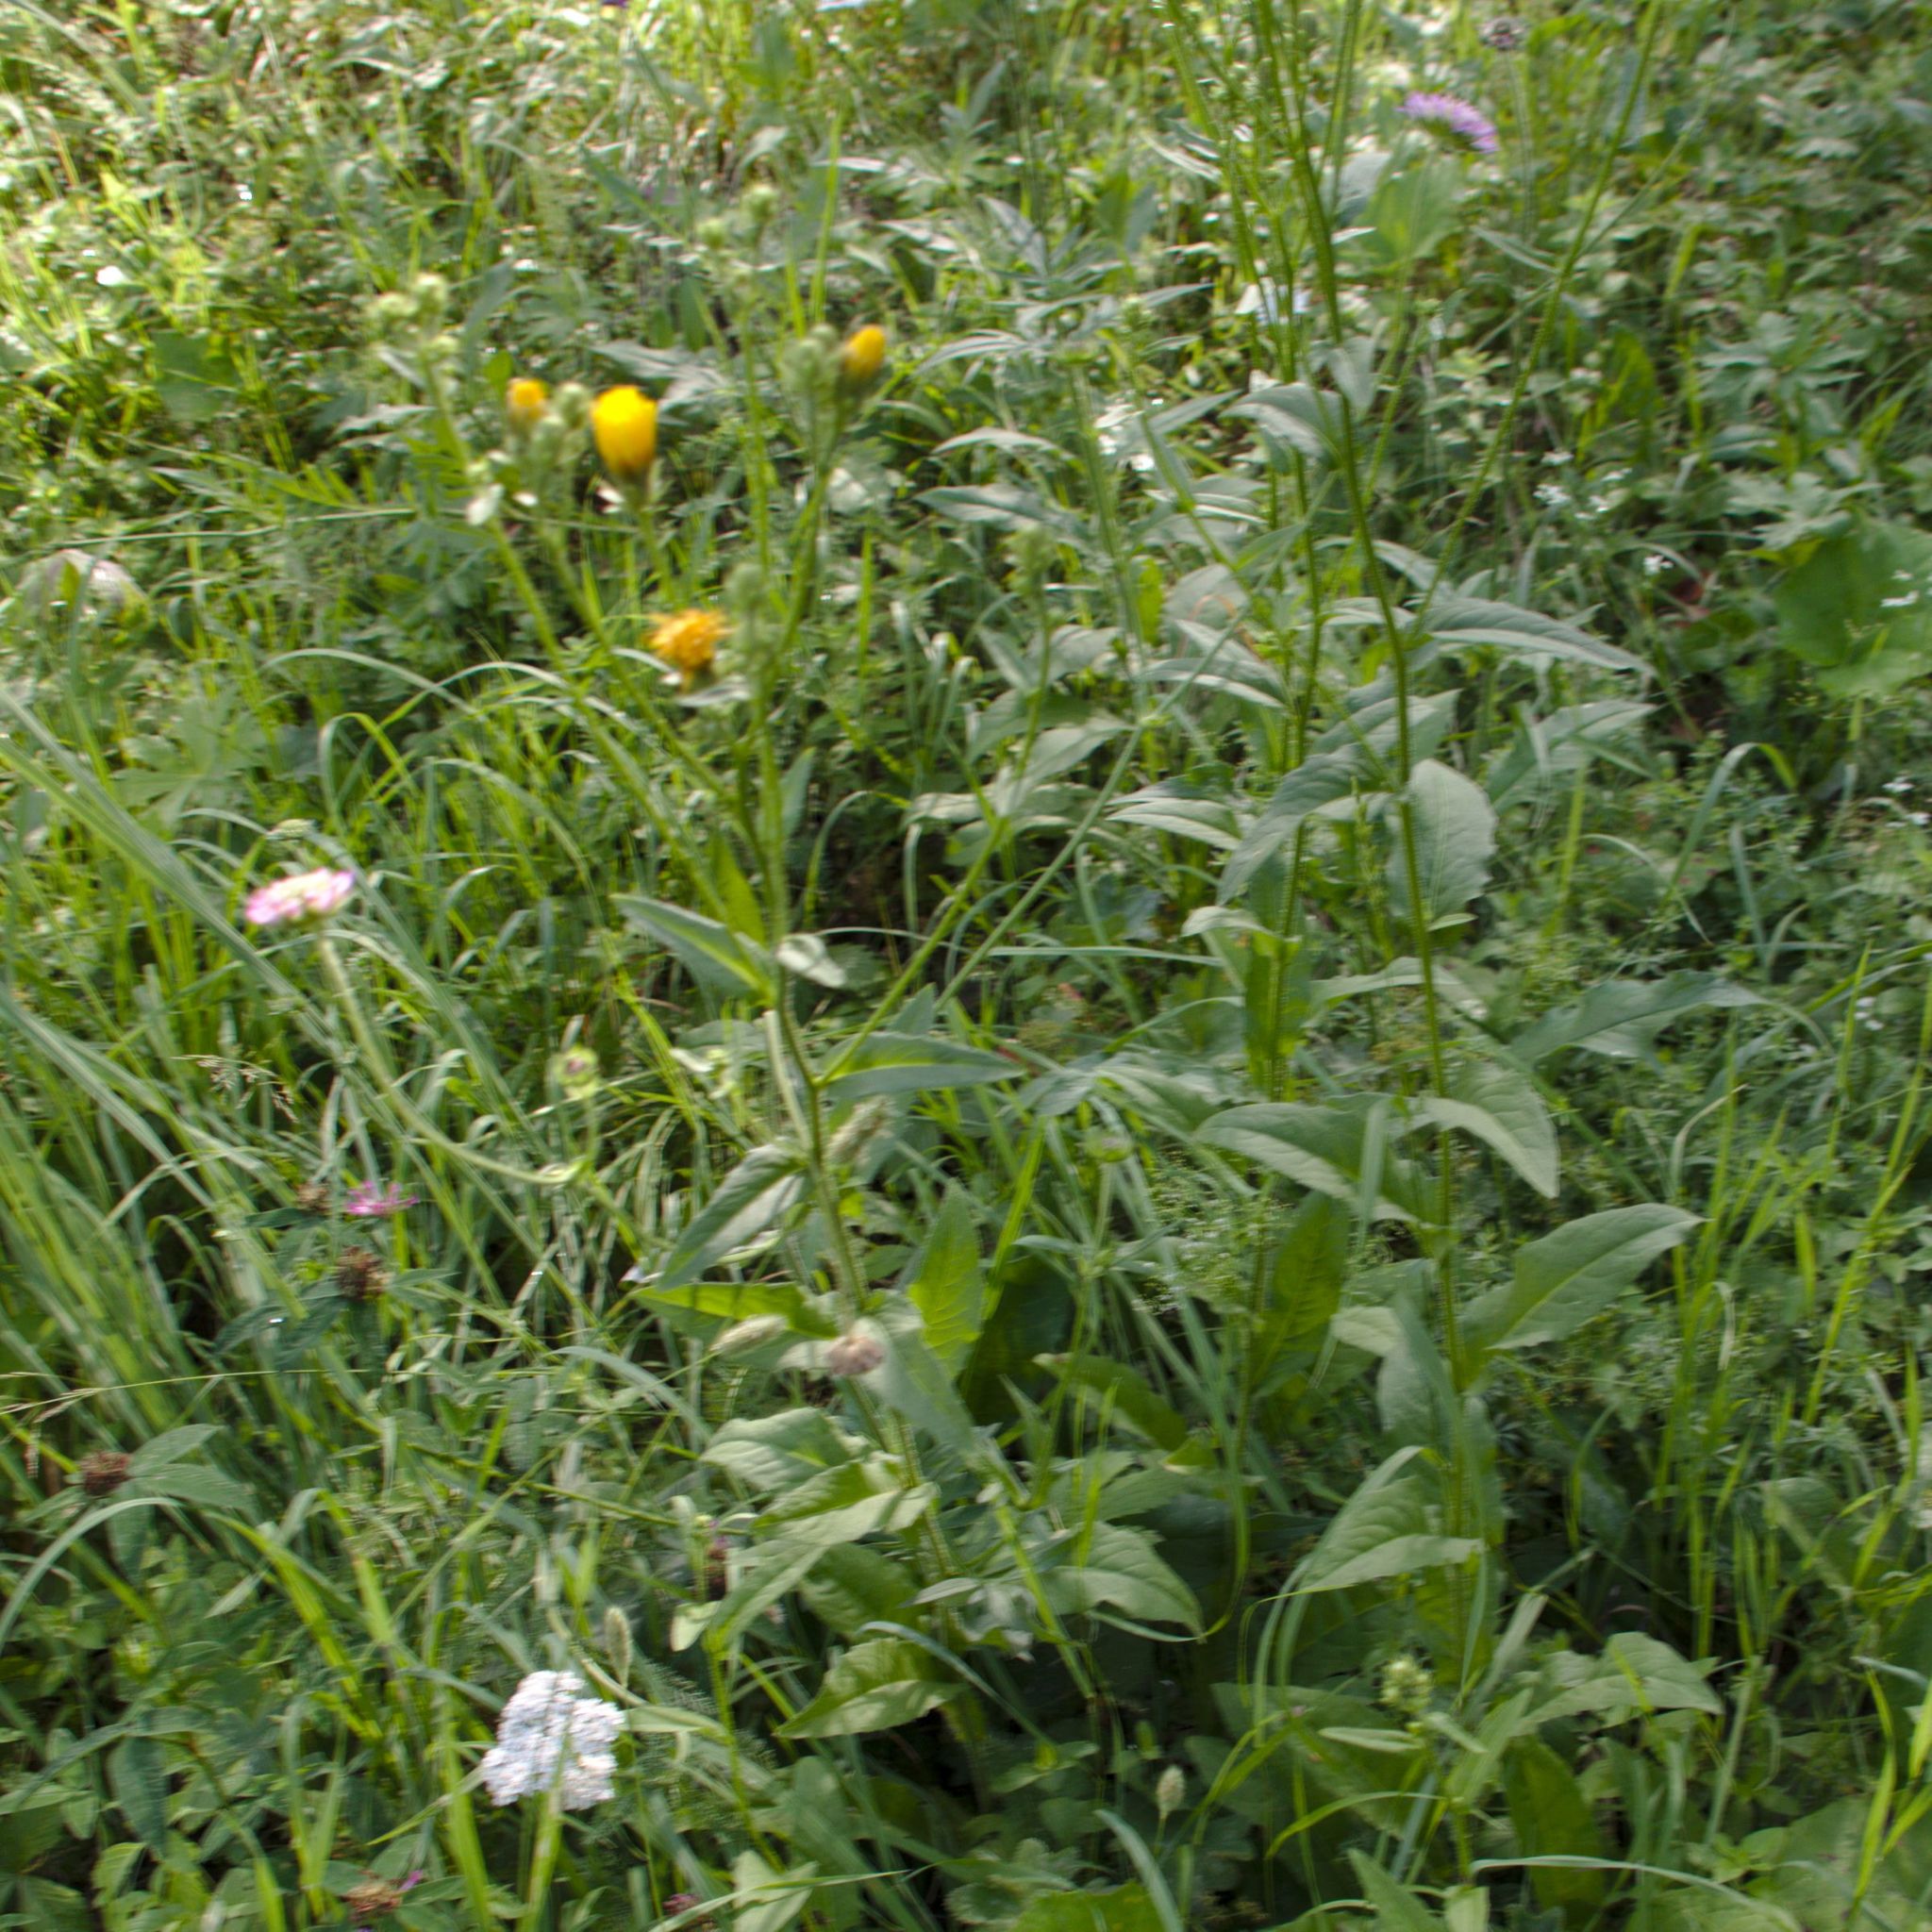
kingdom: Plantae
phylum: Tracheophyta
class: Magnoliopsida
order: Asterales
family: Asteraceae
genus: Picris
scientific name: Picris hieracioides
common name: Hawkweed oxtongue
